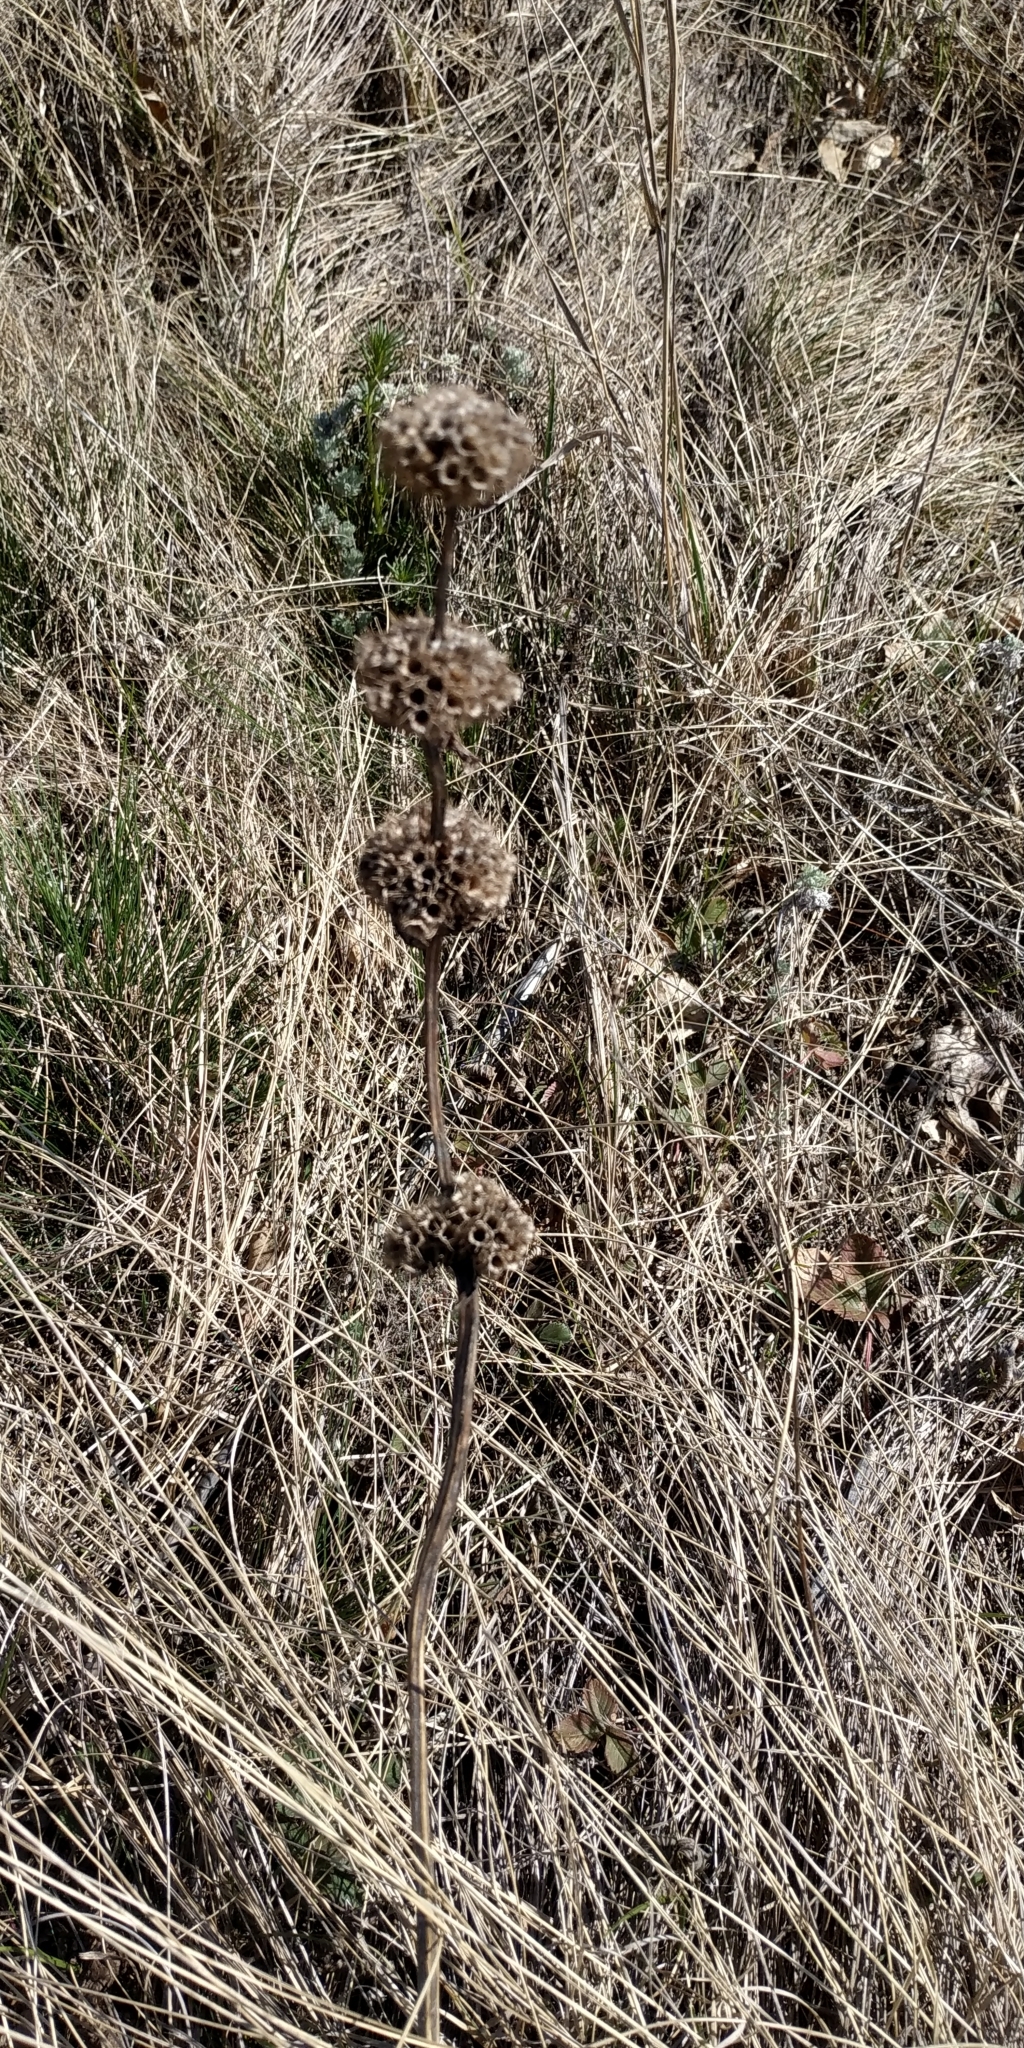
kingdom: Plantae
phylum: Tracheophyta
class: Magnoliopsida
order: Lamiales
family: Lamiaceae
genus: Phlomoides
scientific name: Phlomoides tuberosa
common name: Tuberous jerusalem sage
